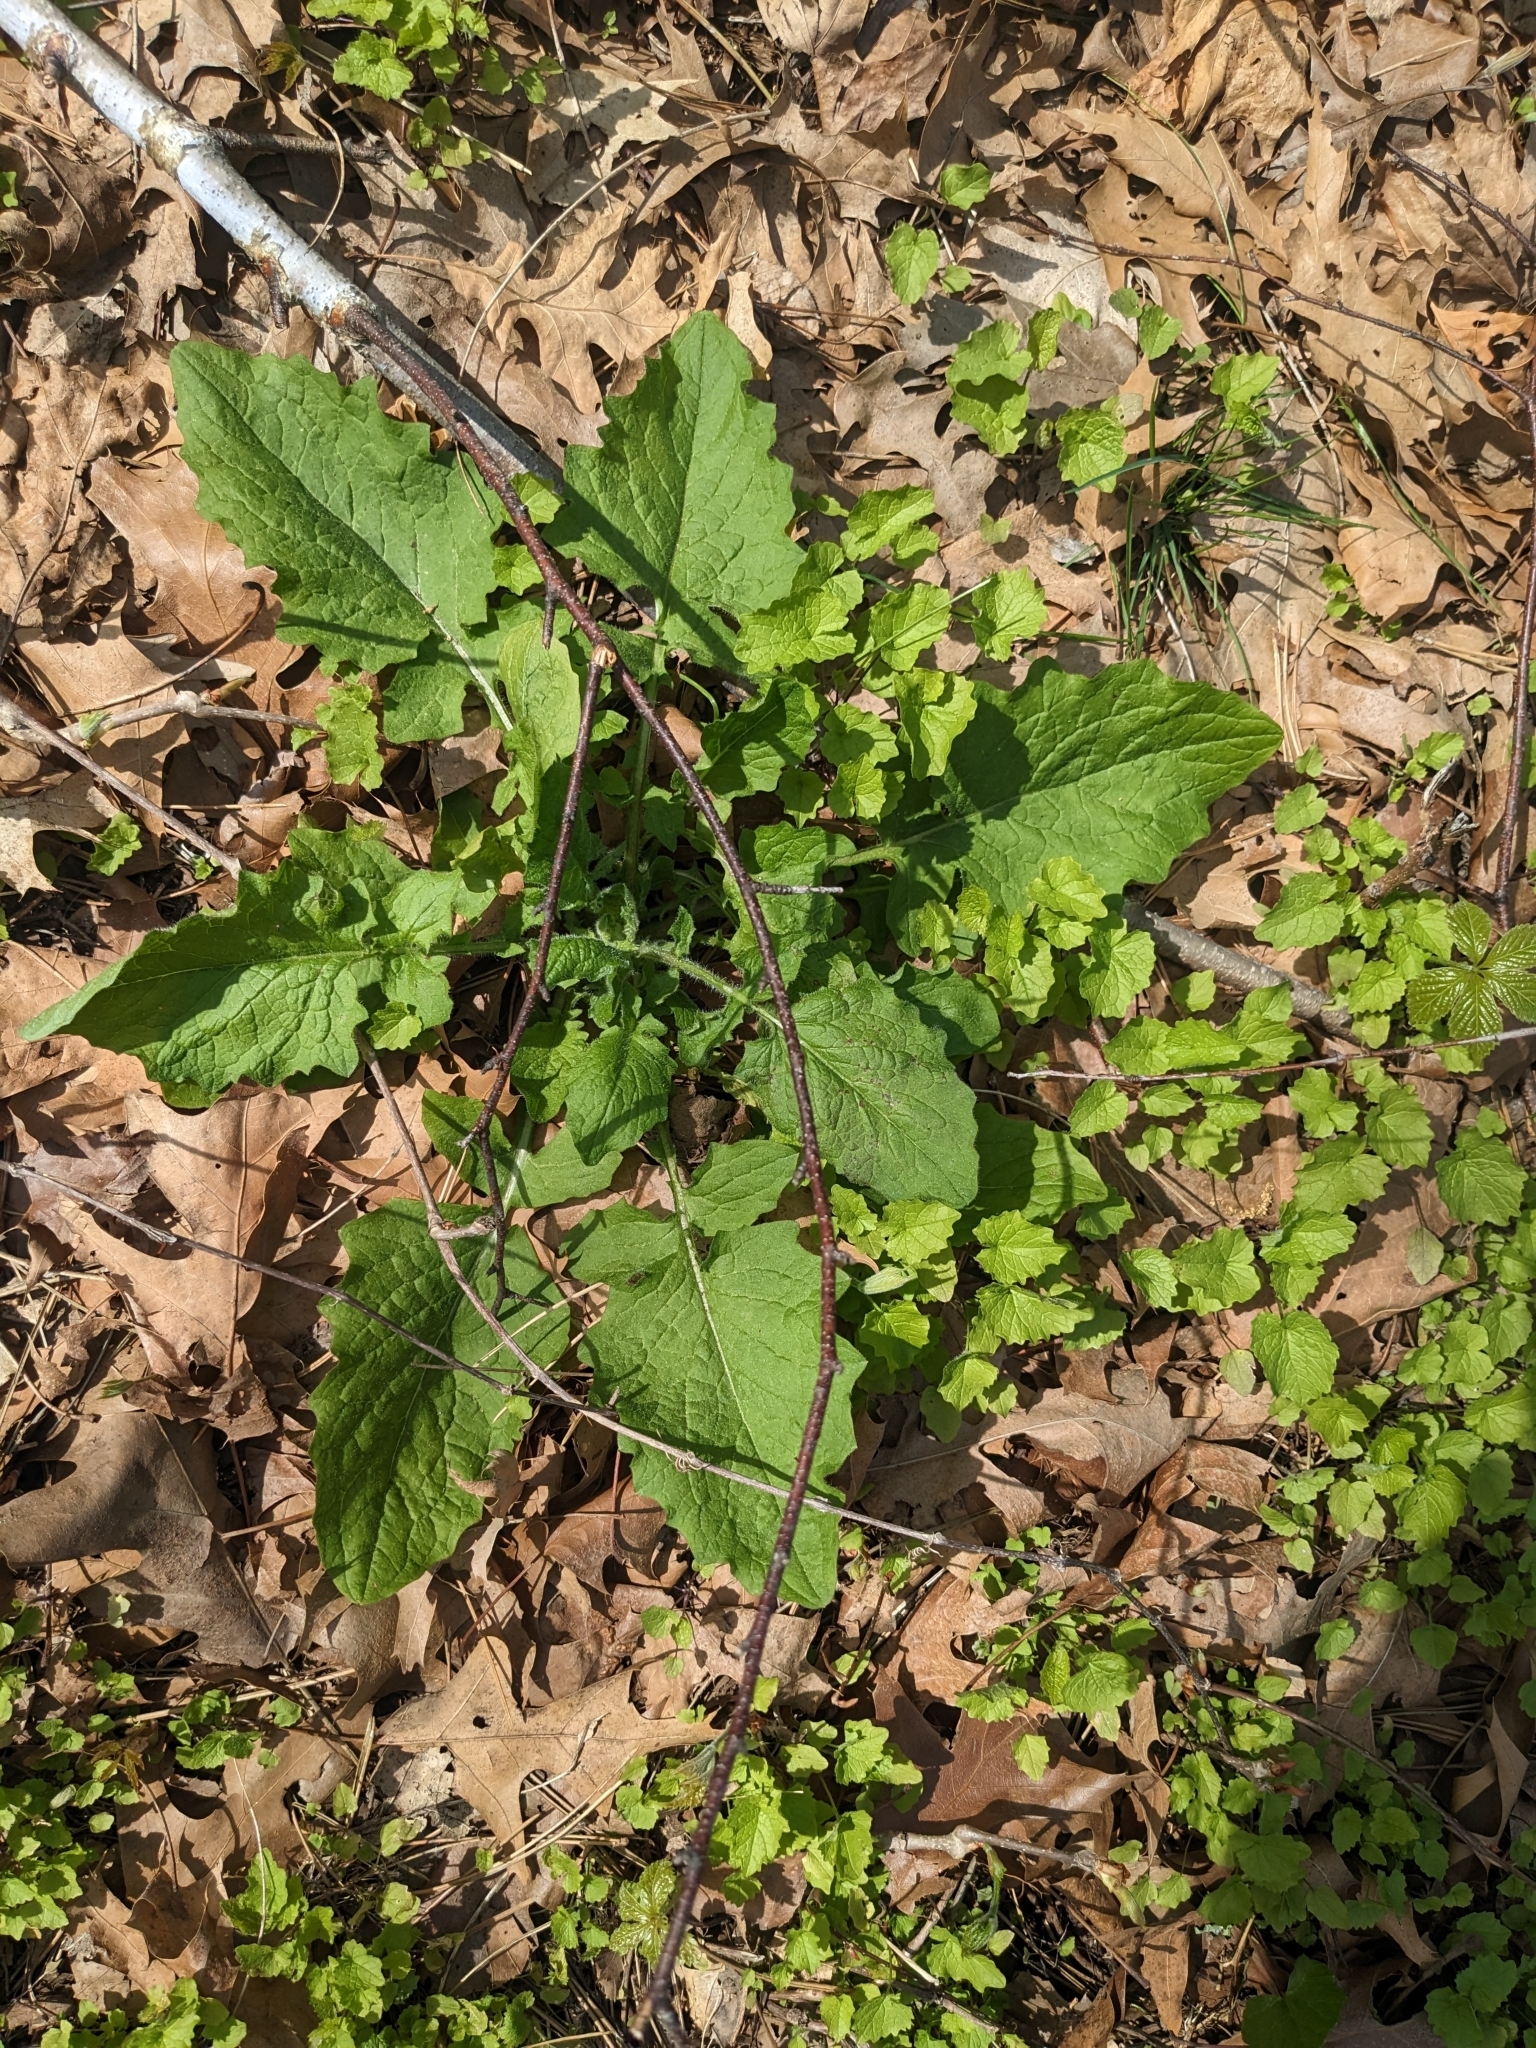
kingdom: Plantae
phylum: Tracheophyta
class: Magnoliopsida
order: Asterales
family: Asteraceae
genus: Lapsana
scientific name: Lapsana communis
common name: Nipplewort
